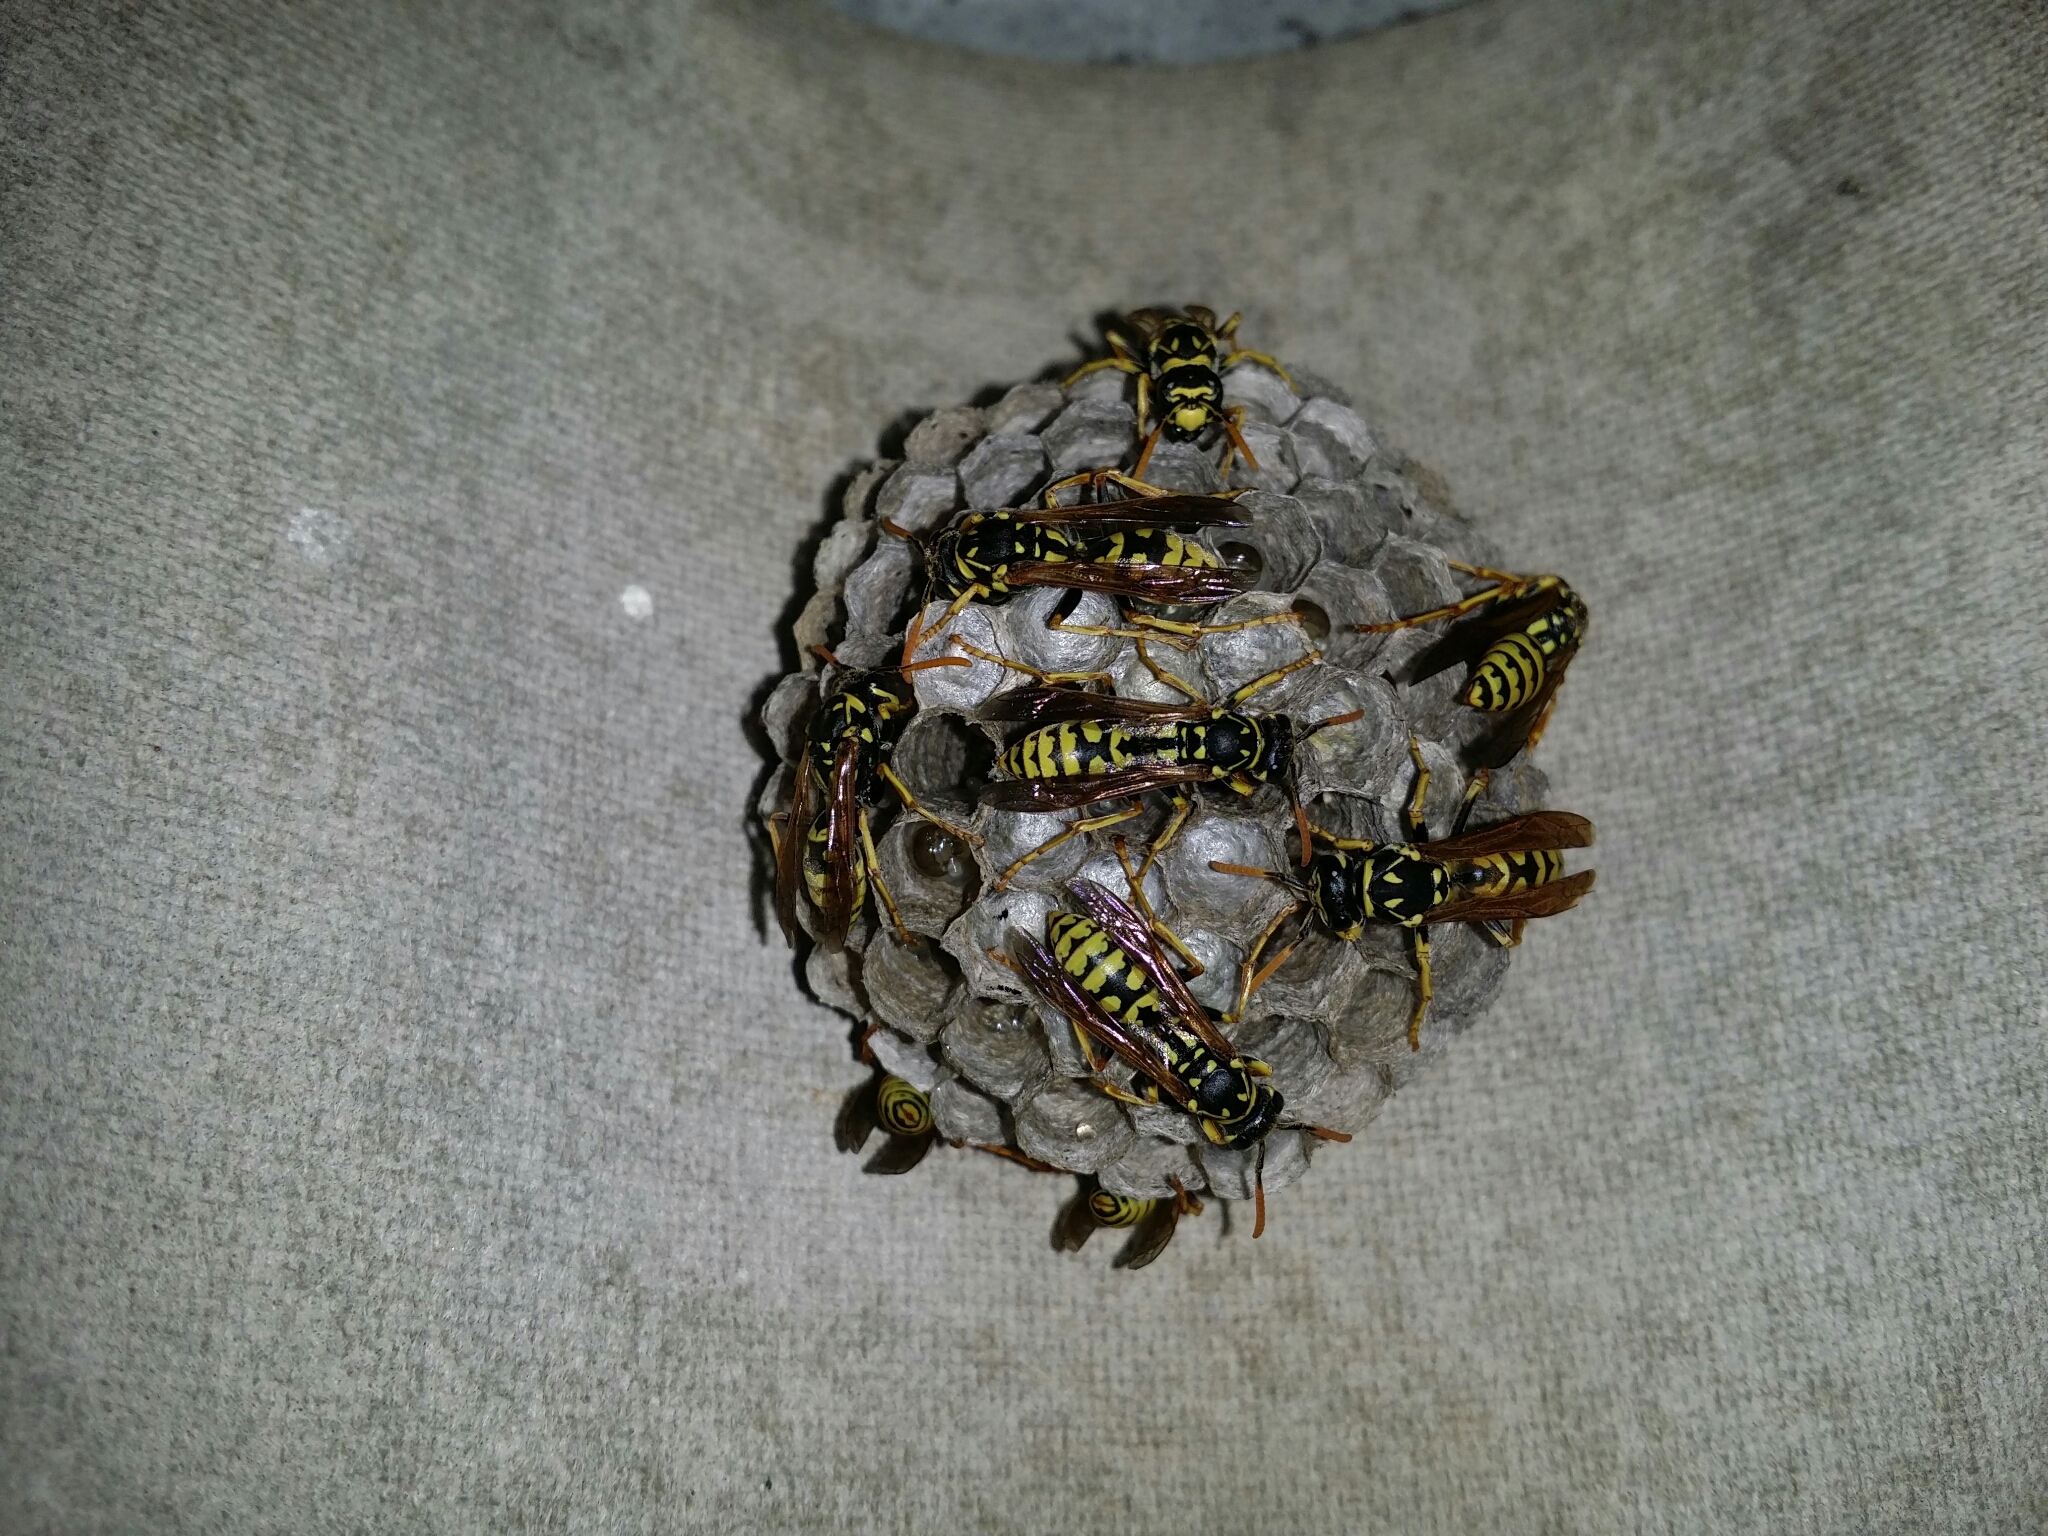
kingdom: Animalia
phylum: Arthropoda
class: Insecta
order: Hymenoptera
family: Eumenidae
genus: Polistes
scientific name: Polistes dominula
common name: Paper wasp
